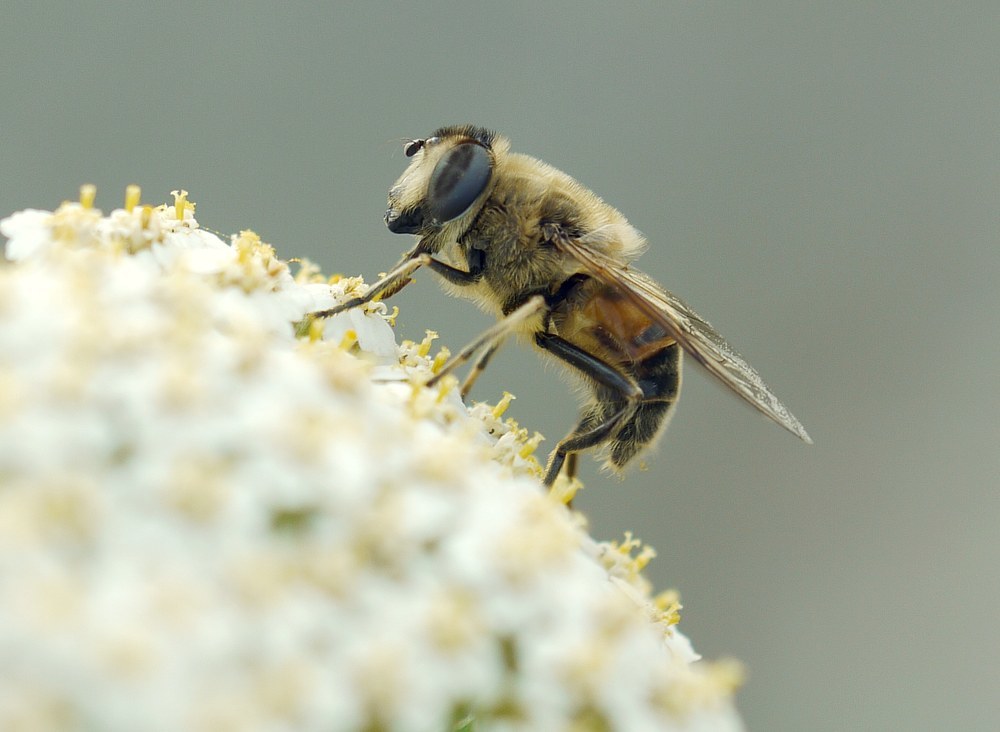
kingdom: Animalia
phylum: Arthropoda
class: Insecta
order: Diptera
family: Syrphidae
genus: Eristalis
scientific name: Eristalis tenax
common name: Drone fly
